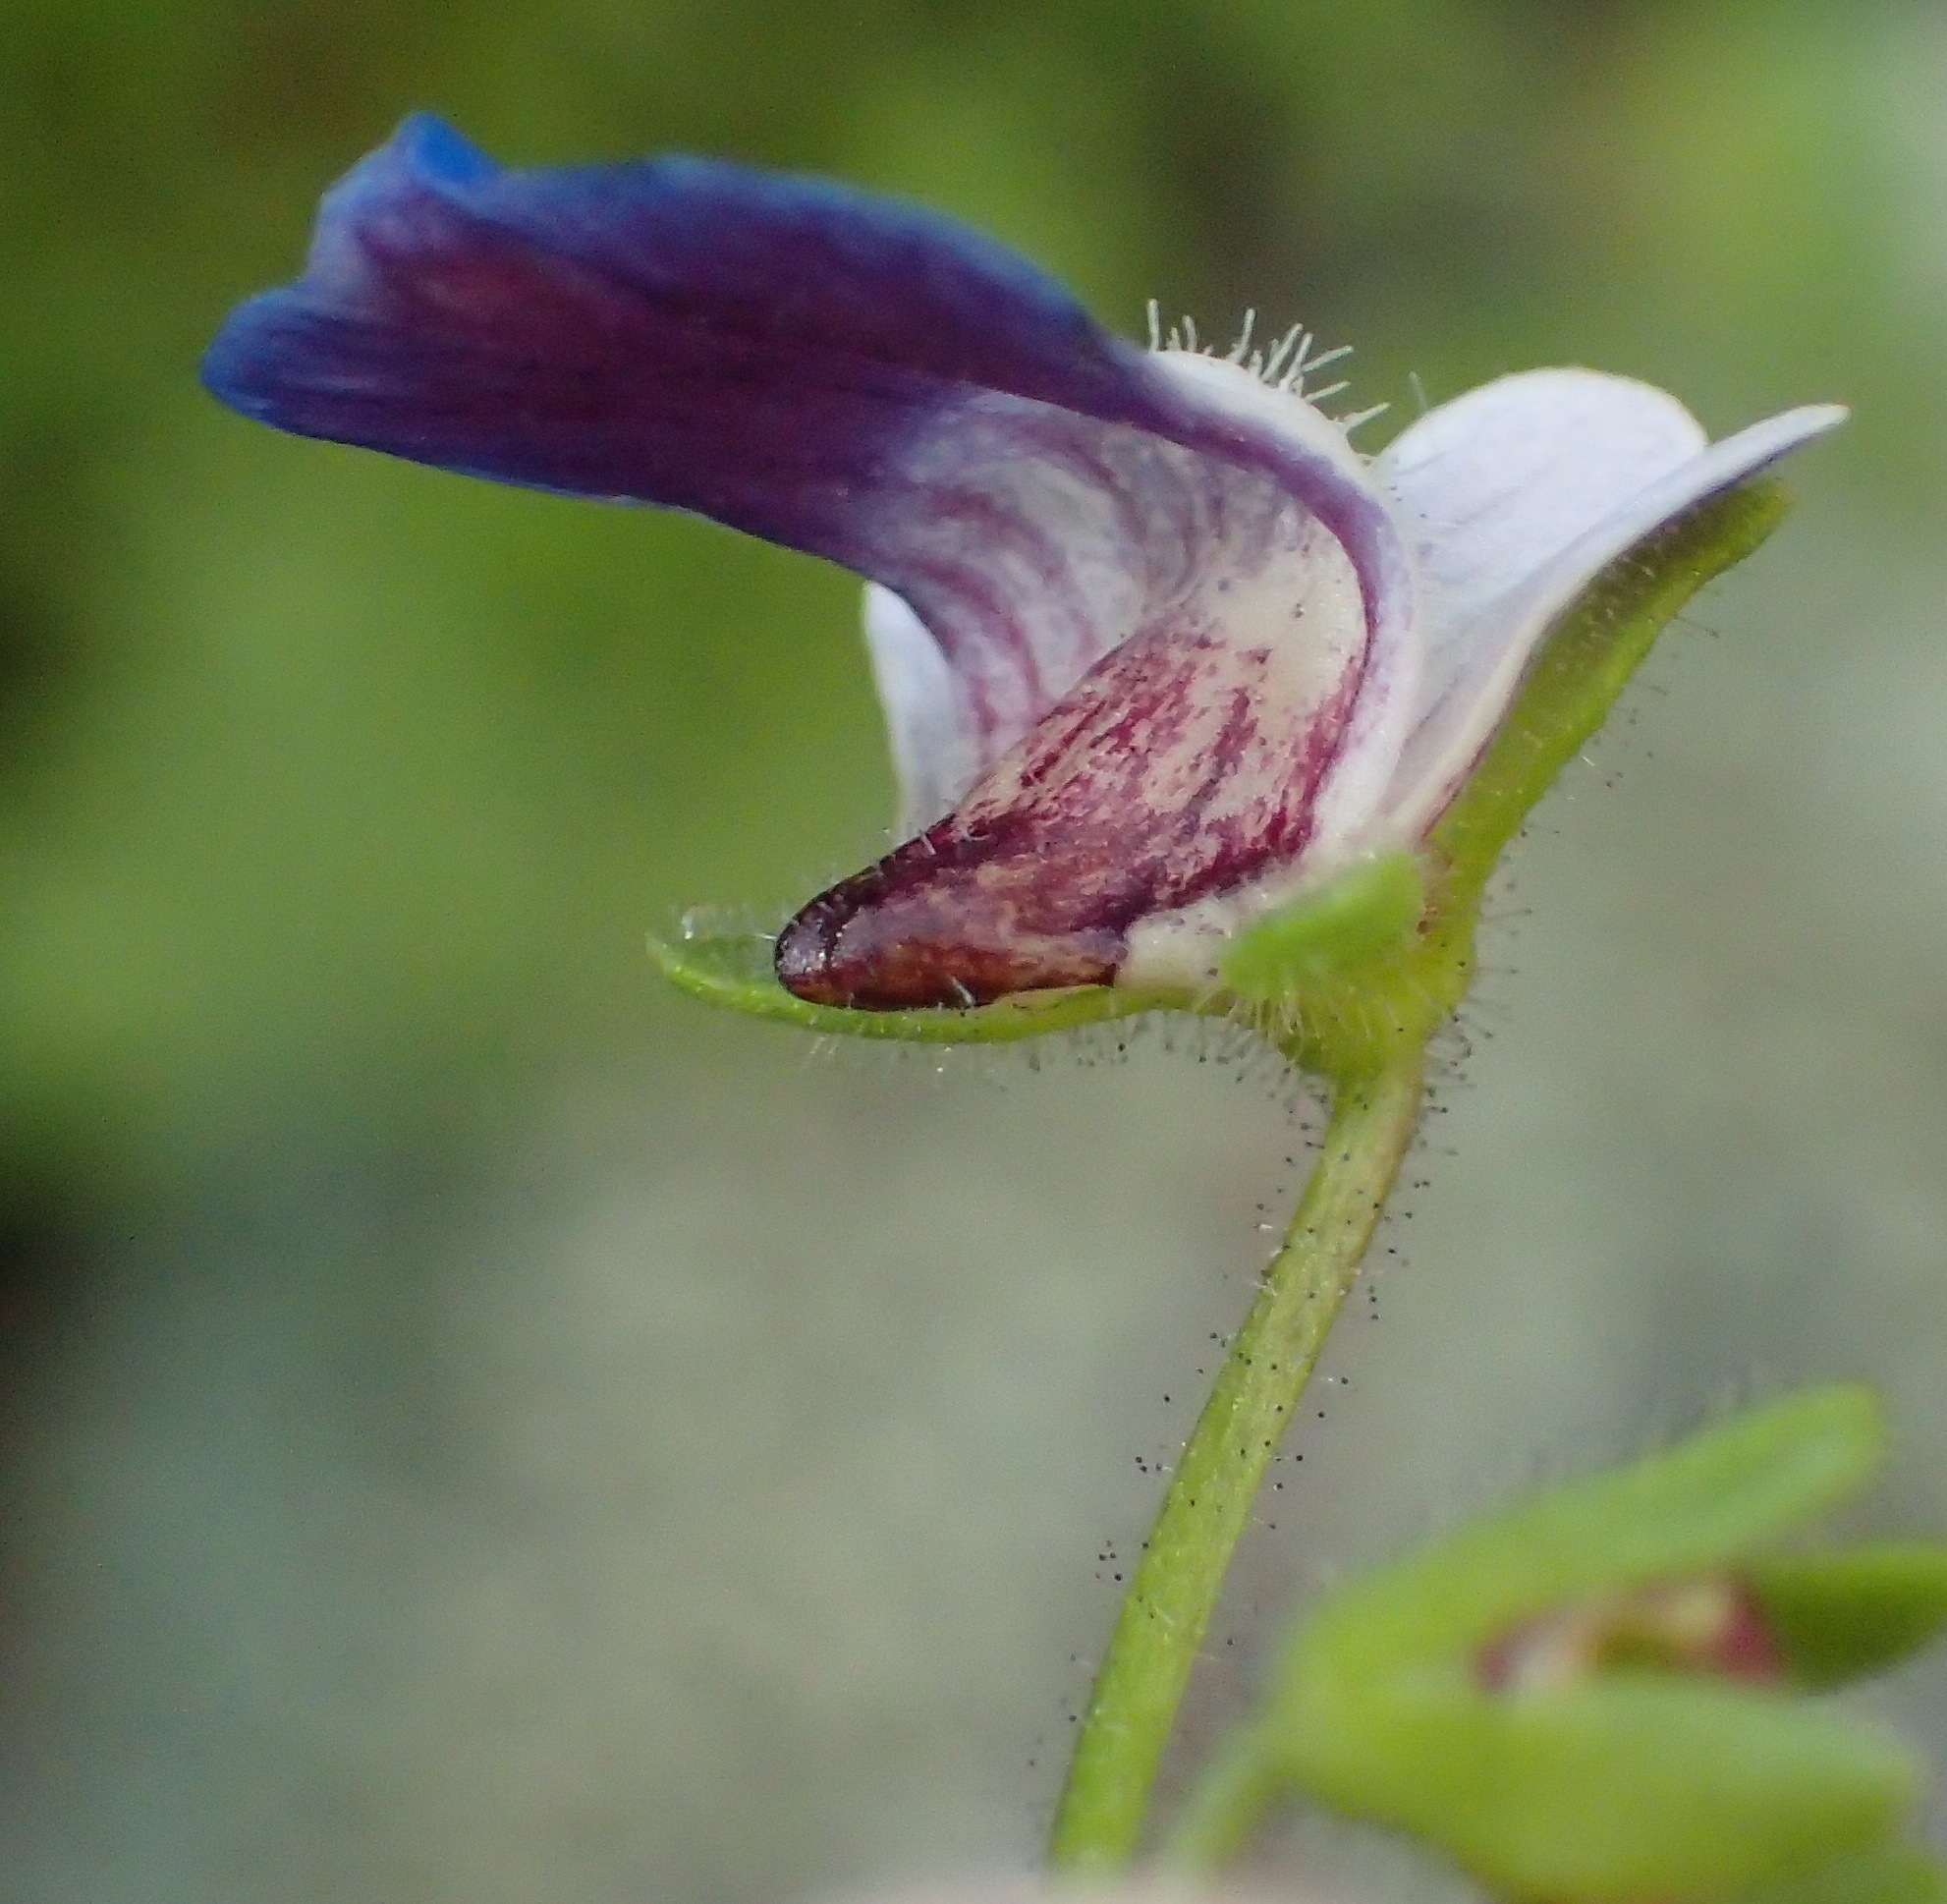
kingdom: Plantae
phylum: Tracheophyta
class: Magnoliopsida
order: Lamiales
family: Scrophulariaceae
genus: Nemesia
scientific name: Nemesia barbata
